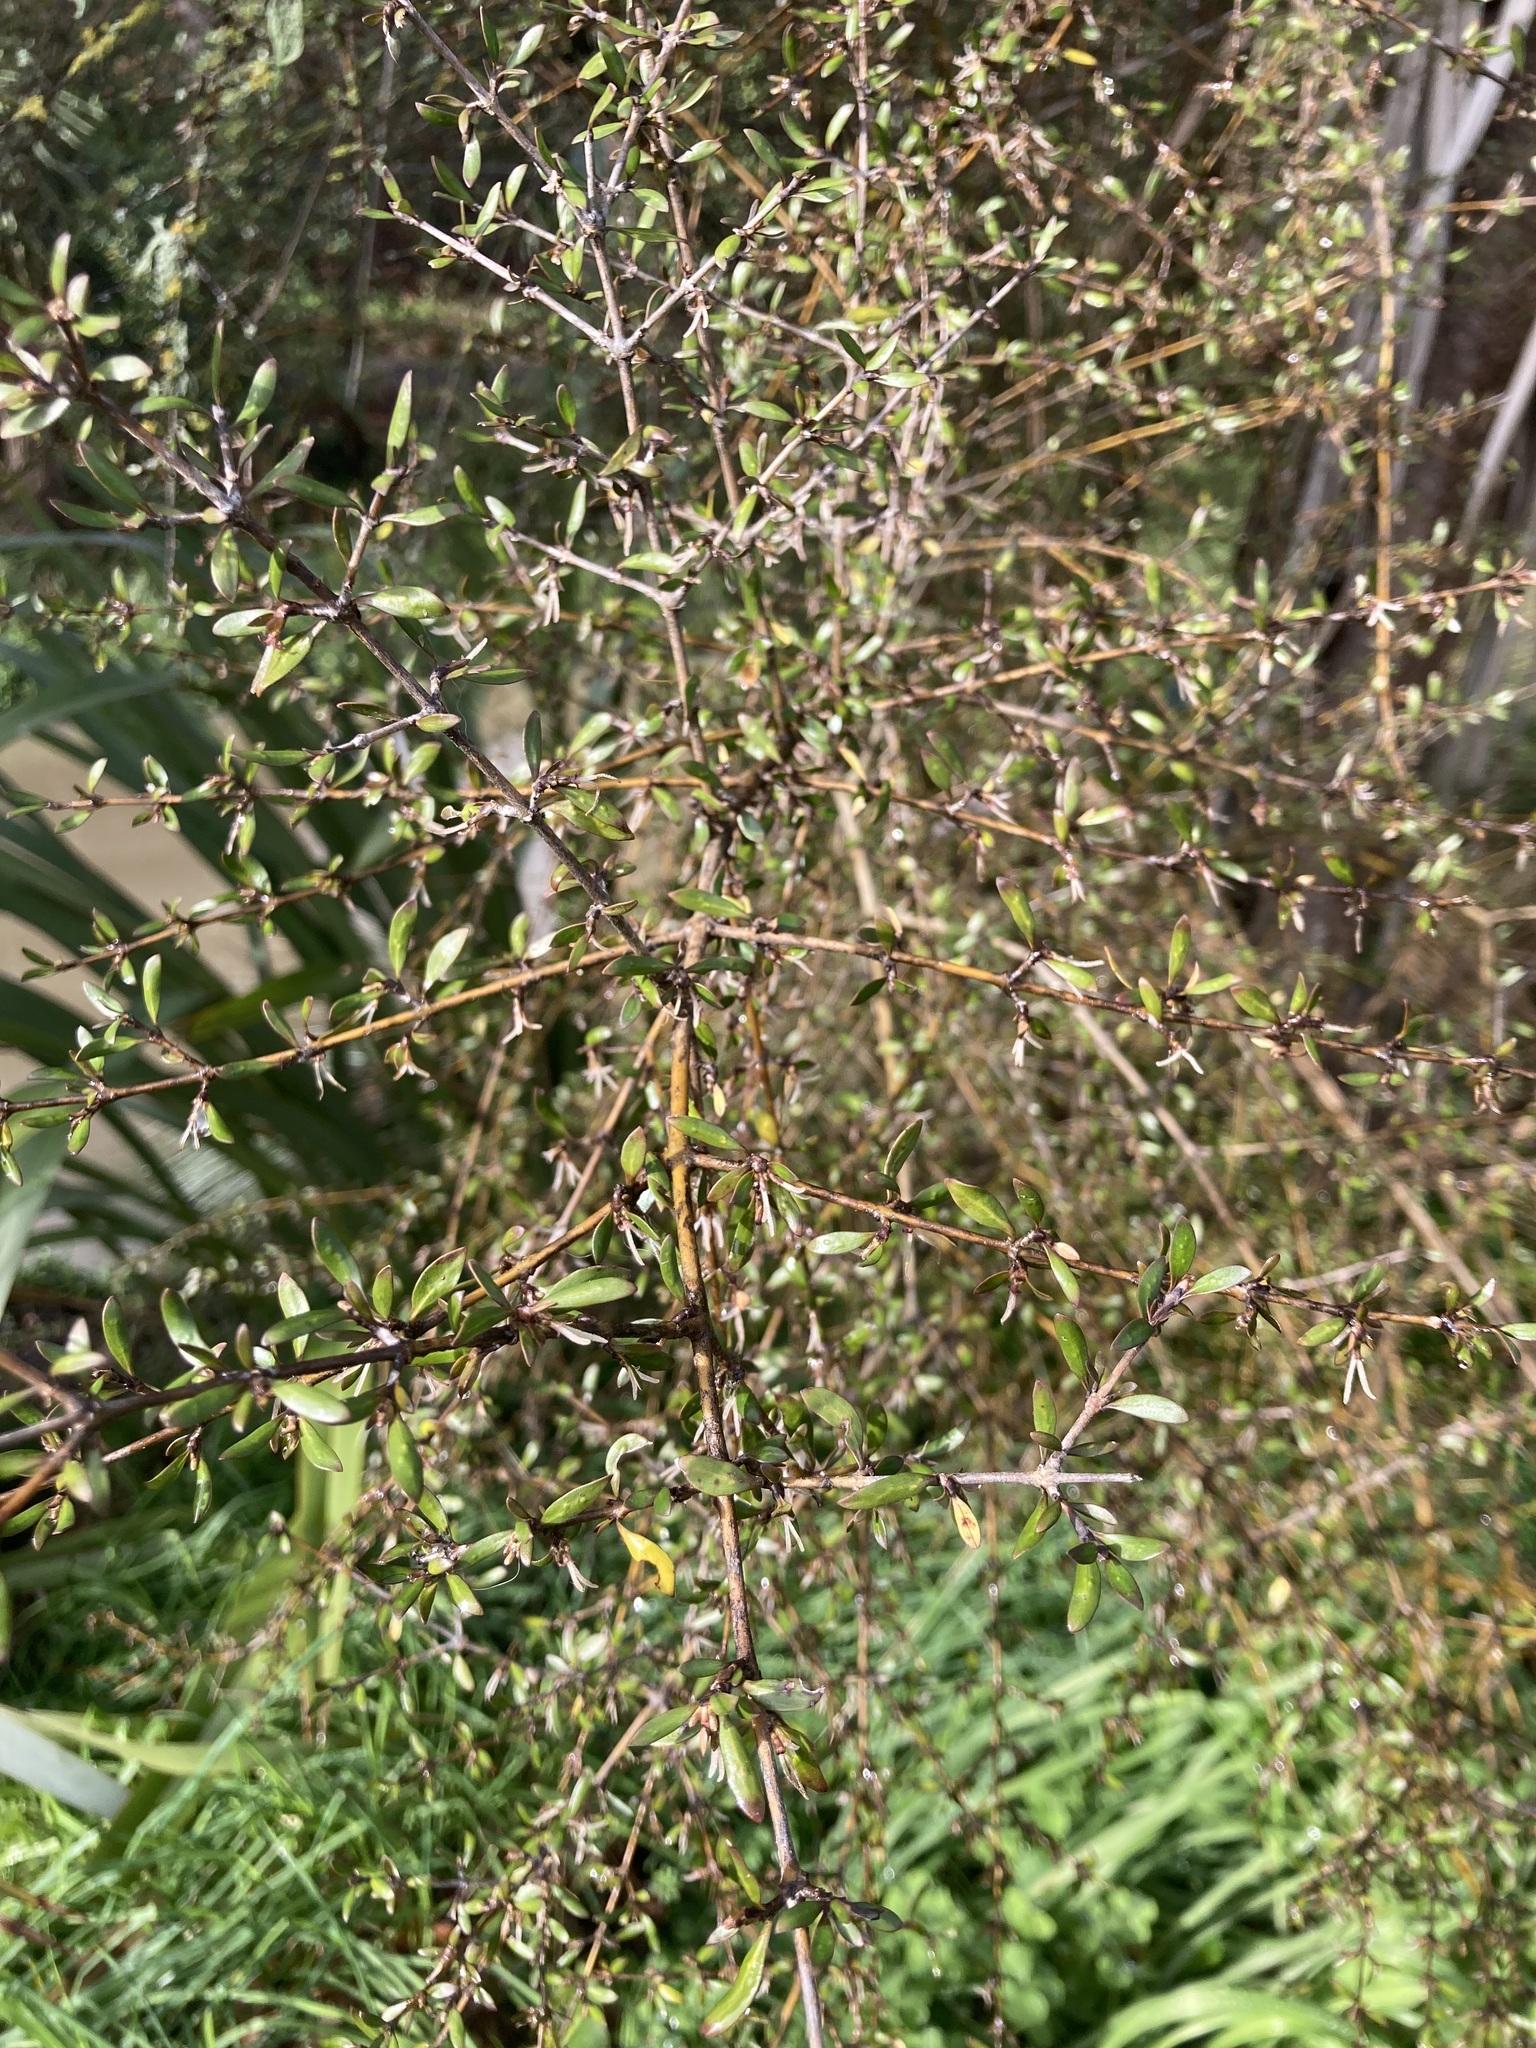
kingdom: Plantae
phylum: Tracheophyta
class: Magnoliopsida
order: Gentianales
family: Rubiaceae
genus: Coprosma
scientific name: Coprosma propinqua
